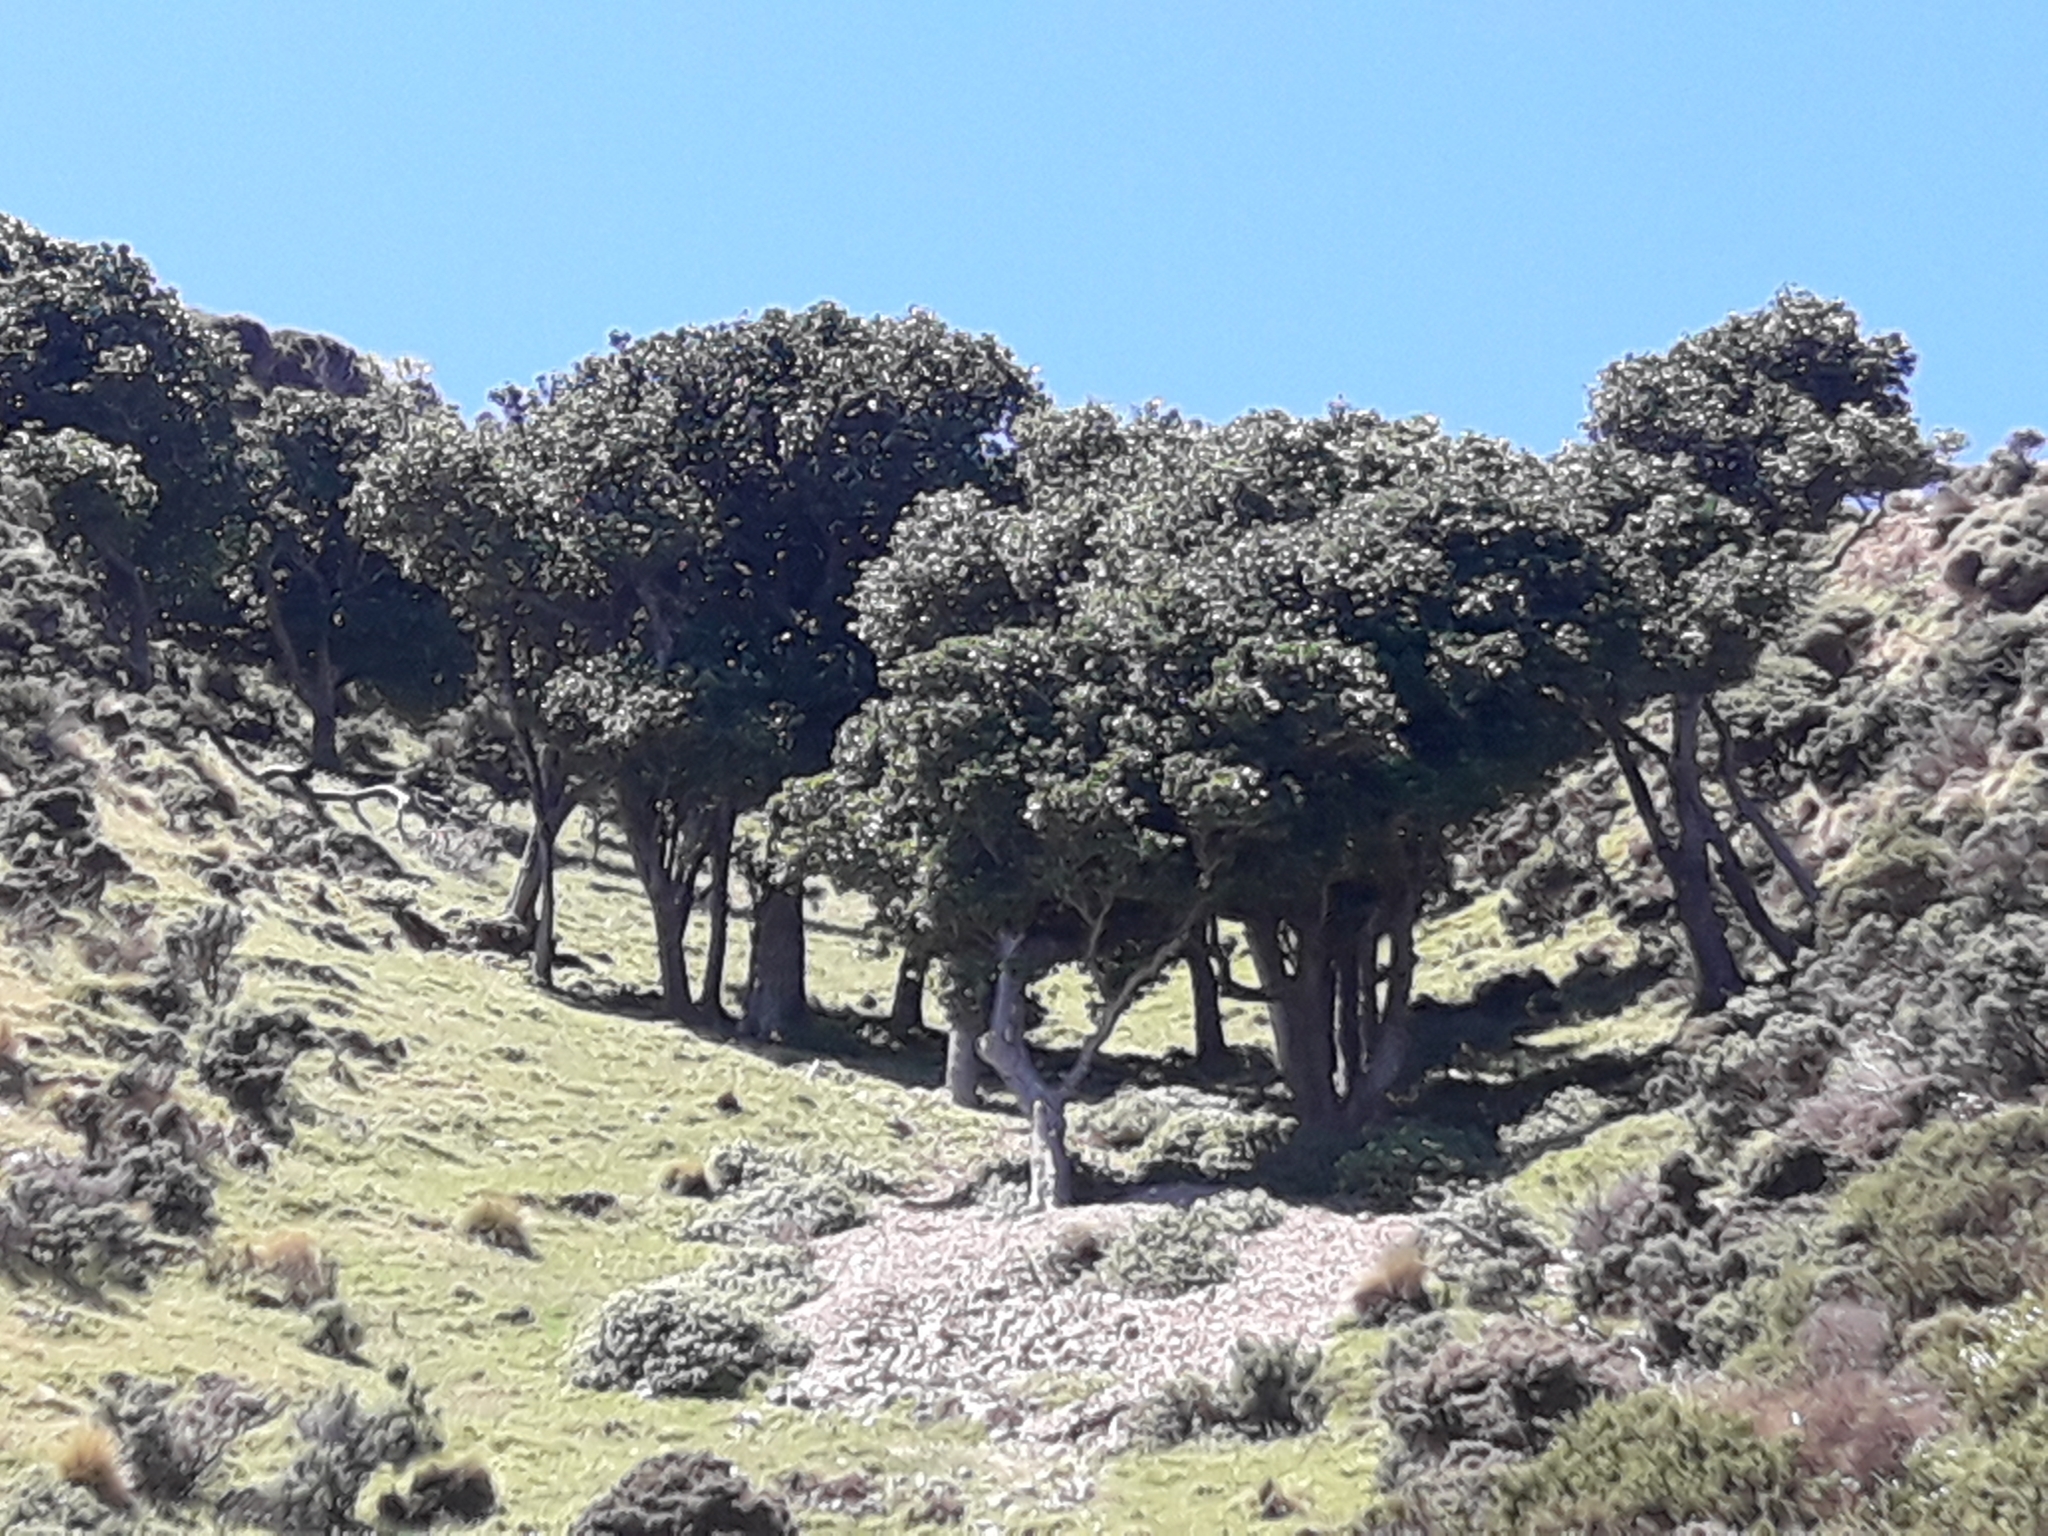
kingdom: Plantae
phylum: Tracheophyta
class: Magnoliopsida
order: Cucurbitales
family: Corynocarpaceae
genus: Corynocarpus
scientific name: Corynocarpus laevigatus
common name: New zealand laurel
